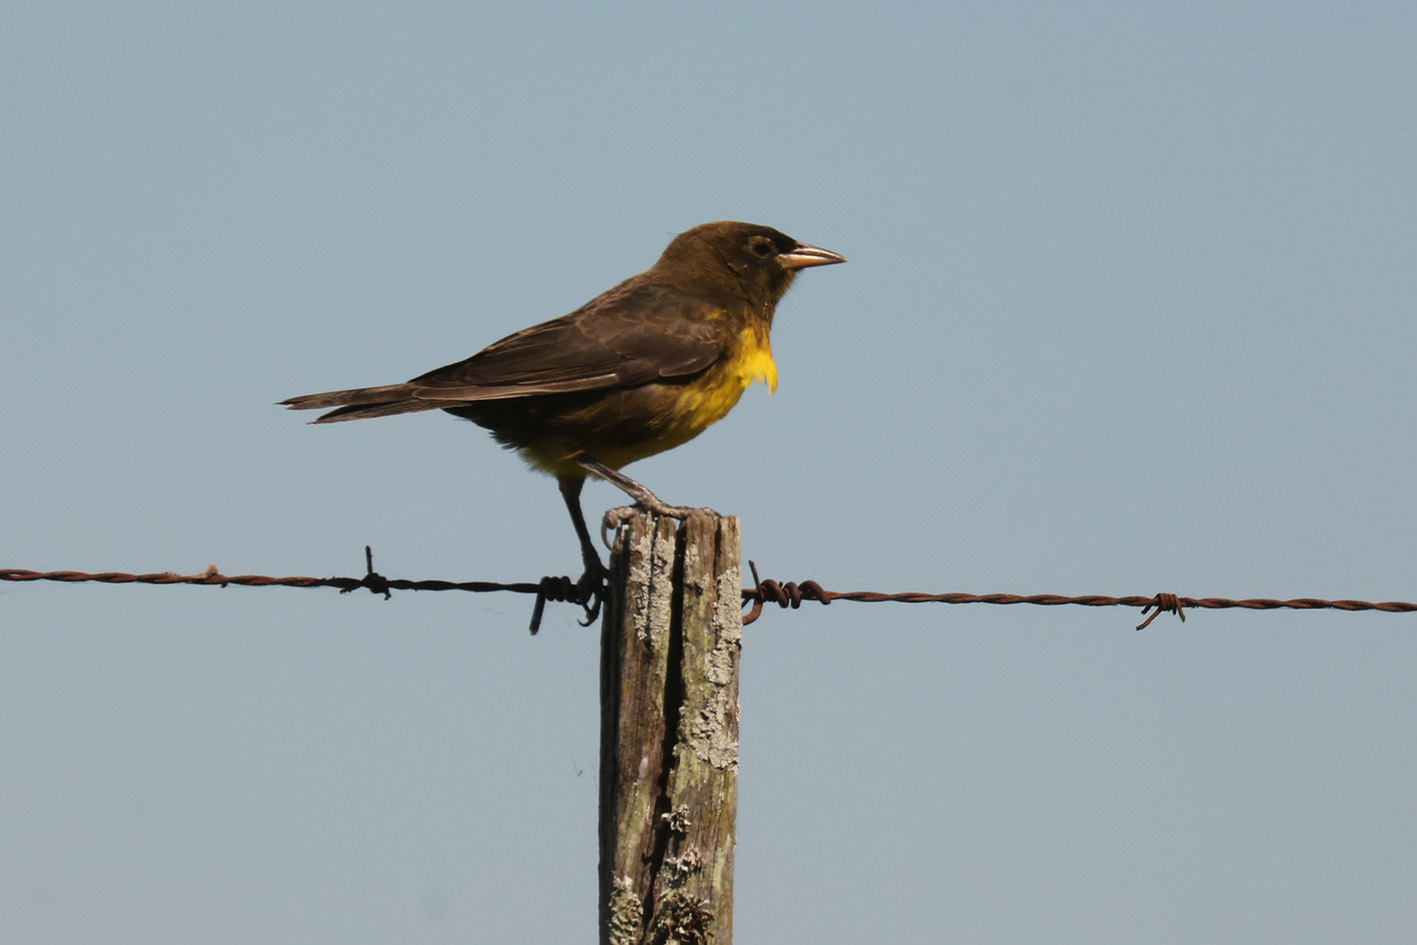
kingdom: Animalia
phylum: Chordata
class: Aves
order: Passeriformes
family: Icteridae
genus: Pseudoleistes
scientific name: Pseudoleistes virescens
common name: Brown-and-yellow marshbird
